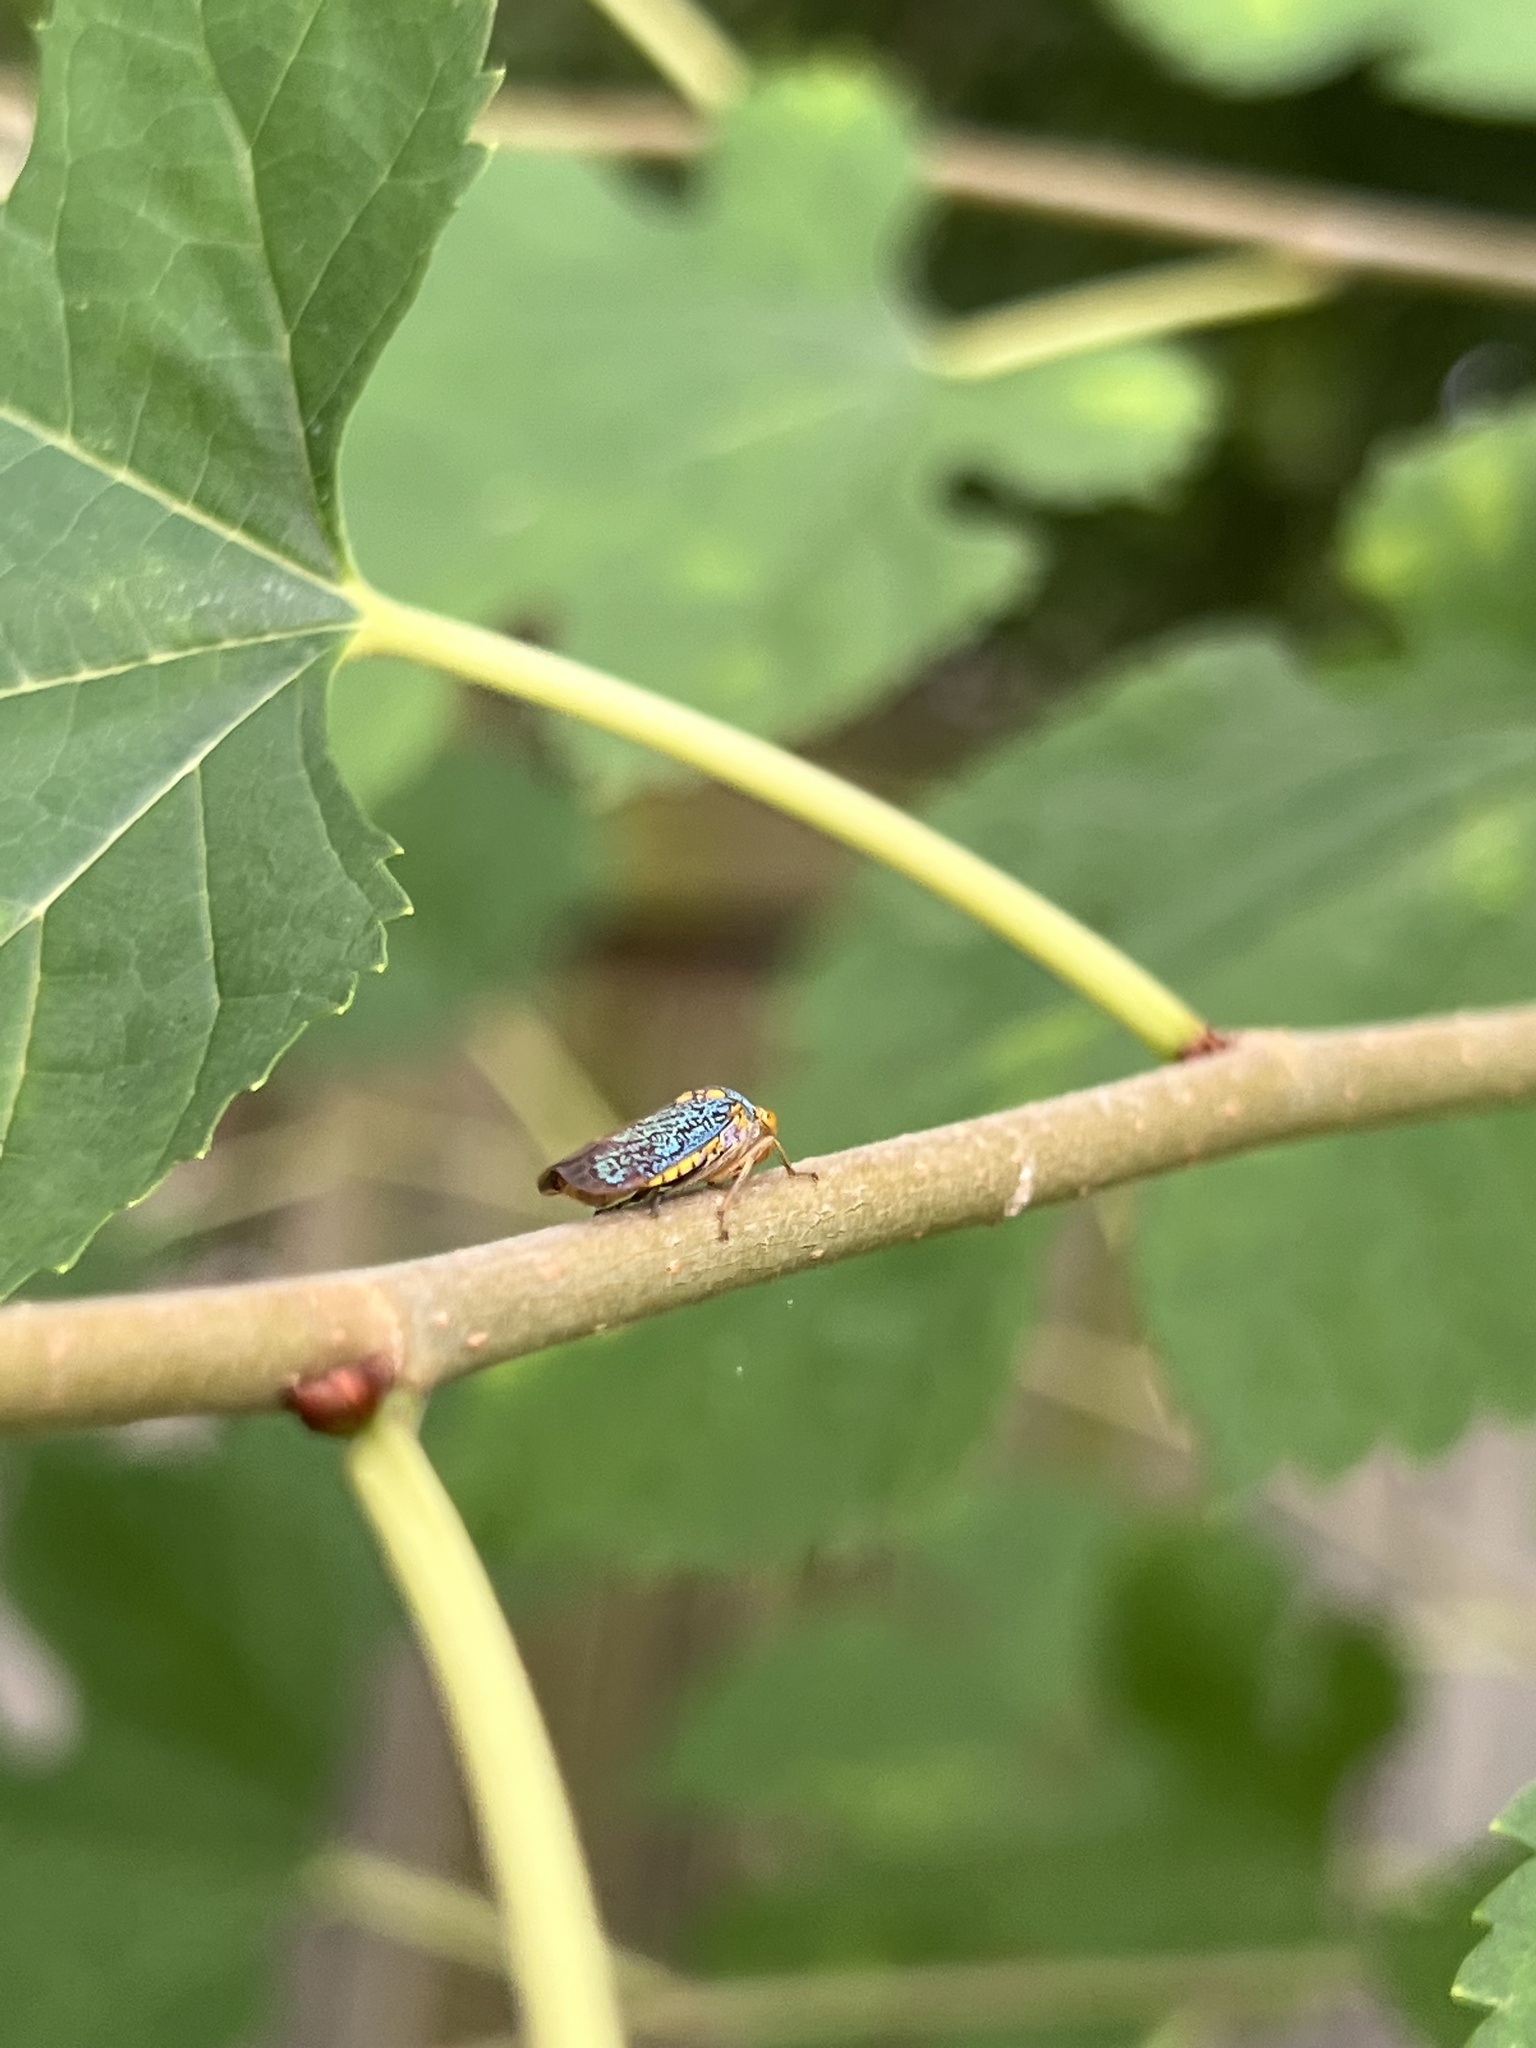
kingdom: Animalia
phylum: Arthropoda
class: Insecta
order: Hemiptera
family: Cicadellidae
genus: Oncometopia
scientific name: Oncometopia orbona
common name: Broad-headed sharpshooter
